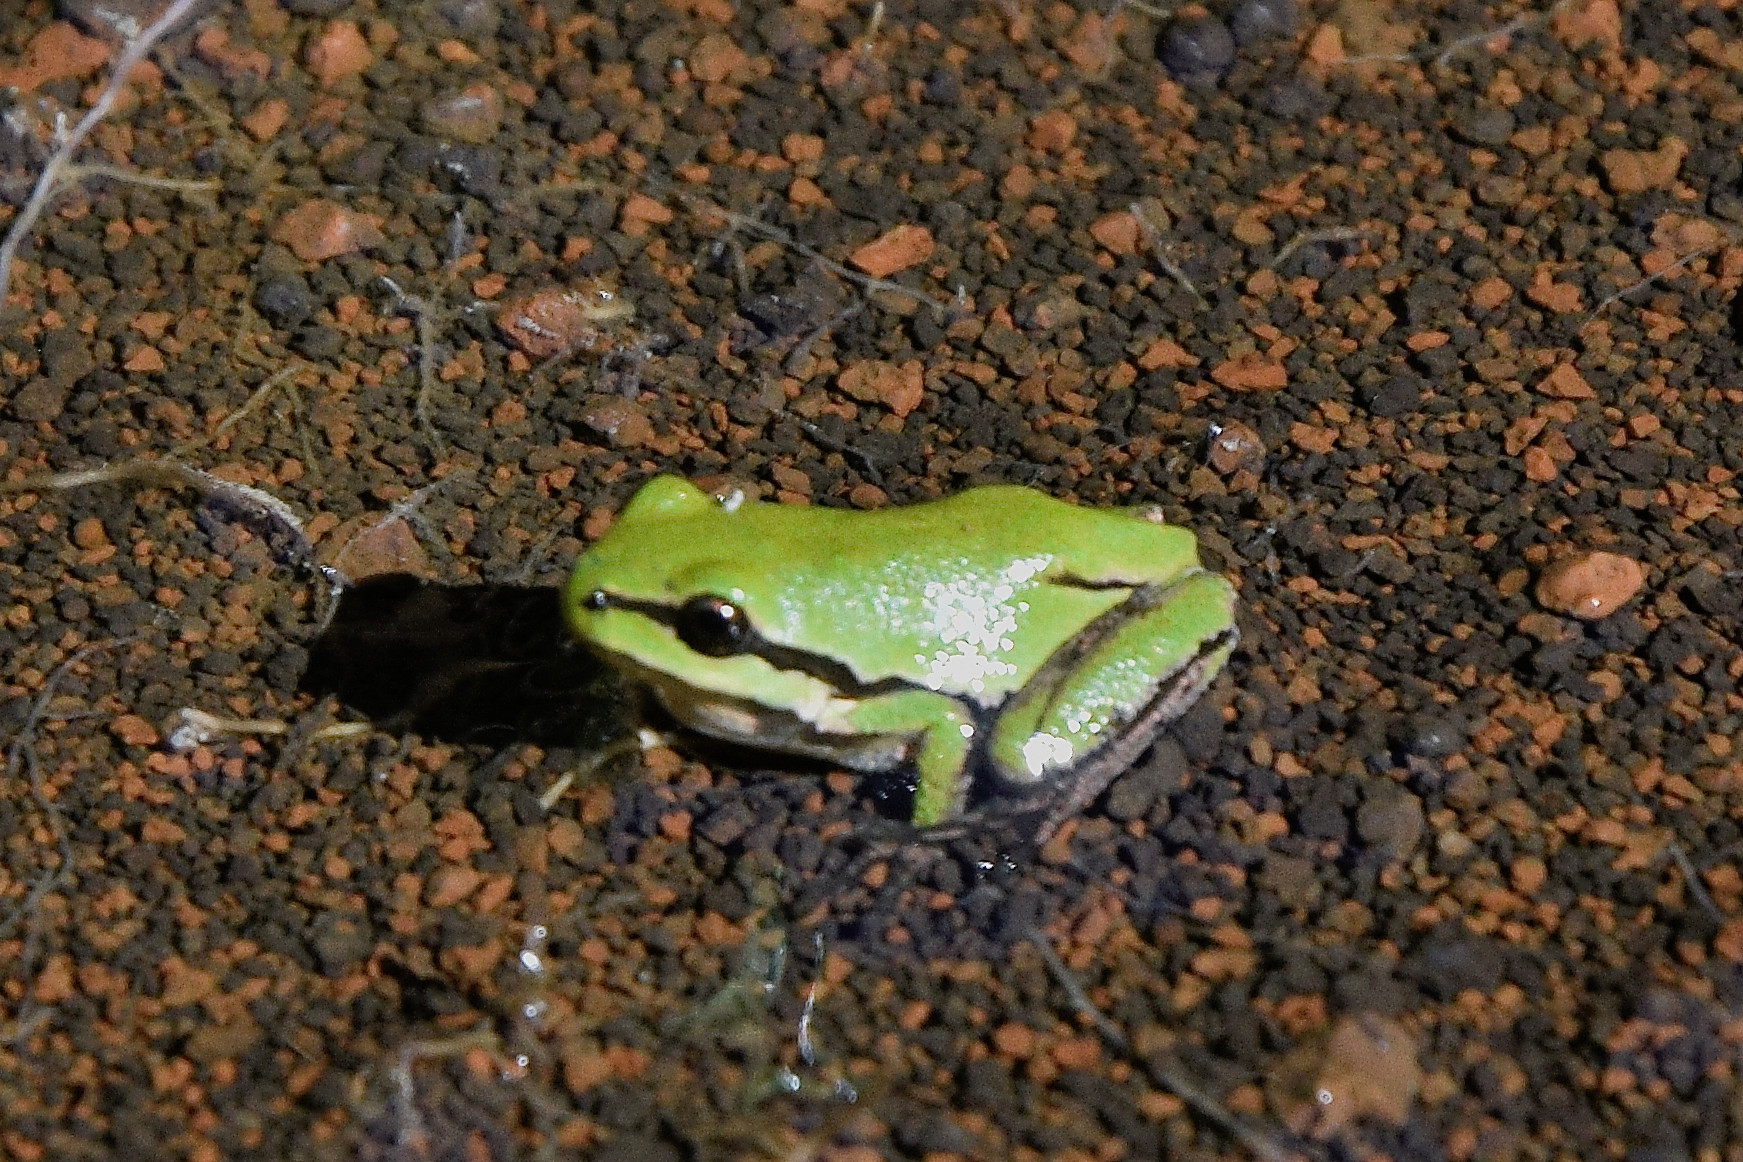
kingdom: Animalia
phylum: Chordata
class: Amphibia
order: Anura
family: Hylidae
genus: Dryophytes
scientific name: Dryophytes eximius
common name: Mountain treefrog
